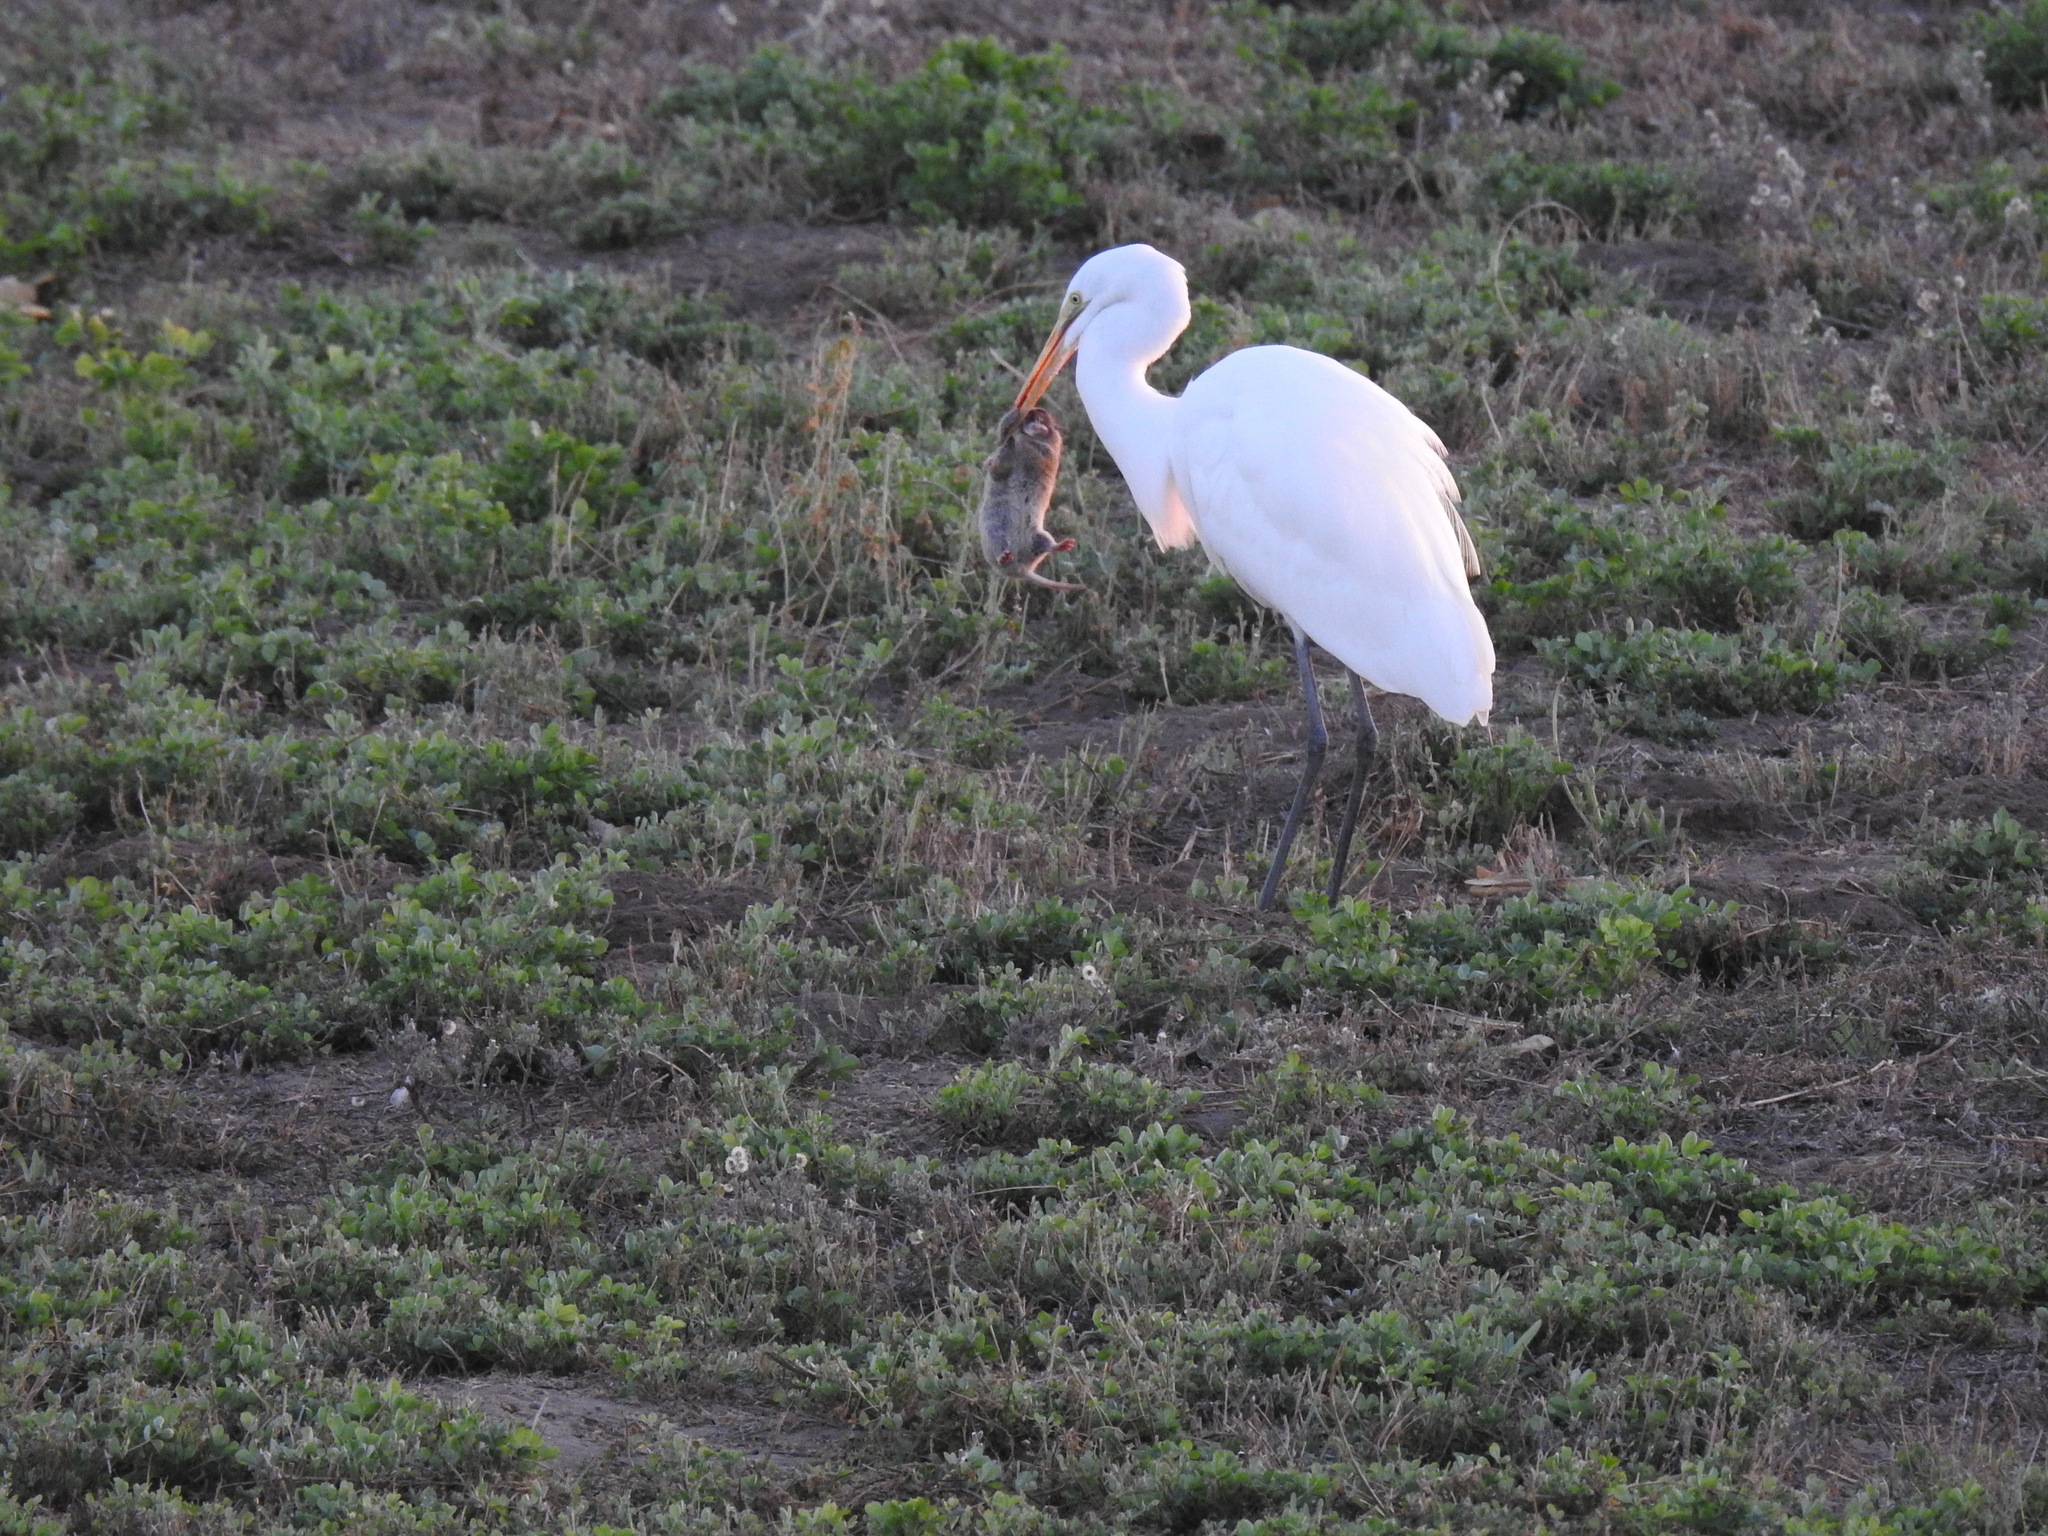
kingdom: Animalia
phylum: Chordata
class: Aves
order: Pelecaniformes
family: Ardeidae
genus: Ardea
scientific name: Ardea alba
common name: Great egret
